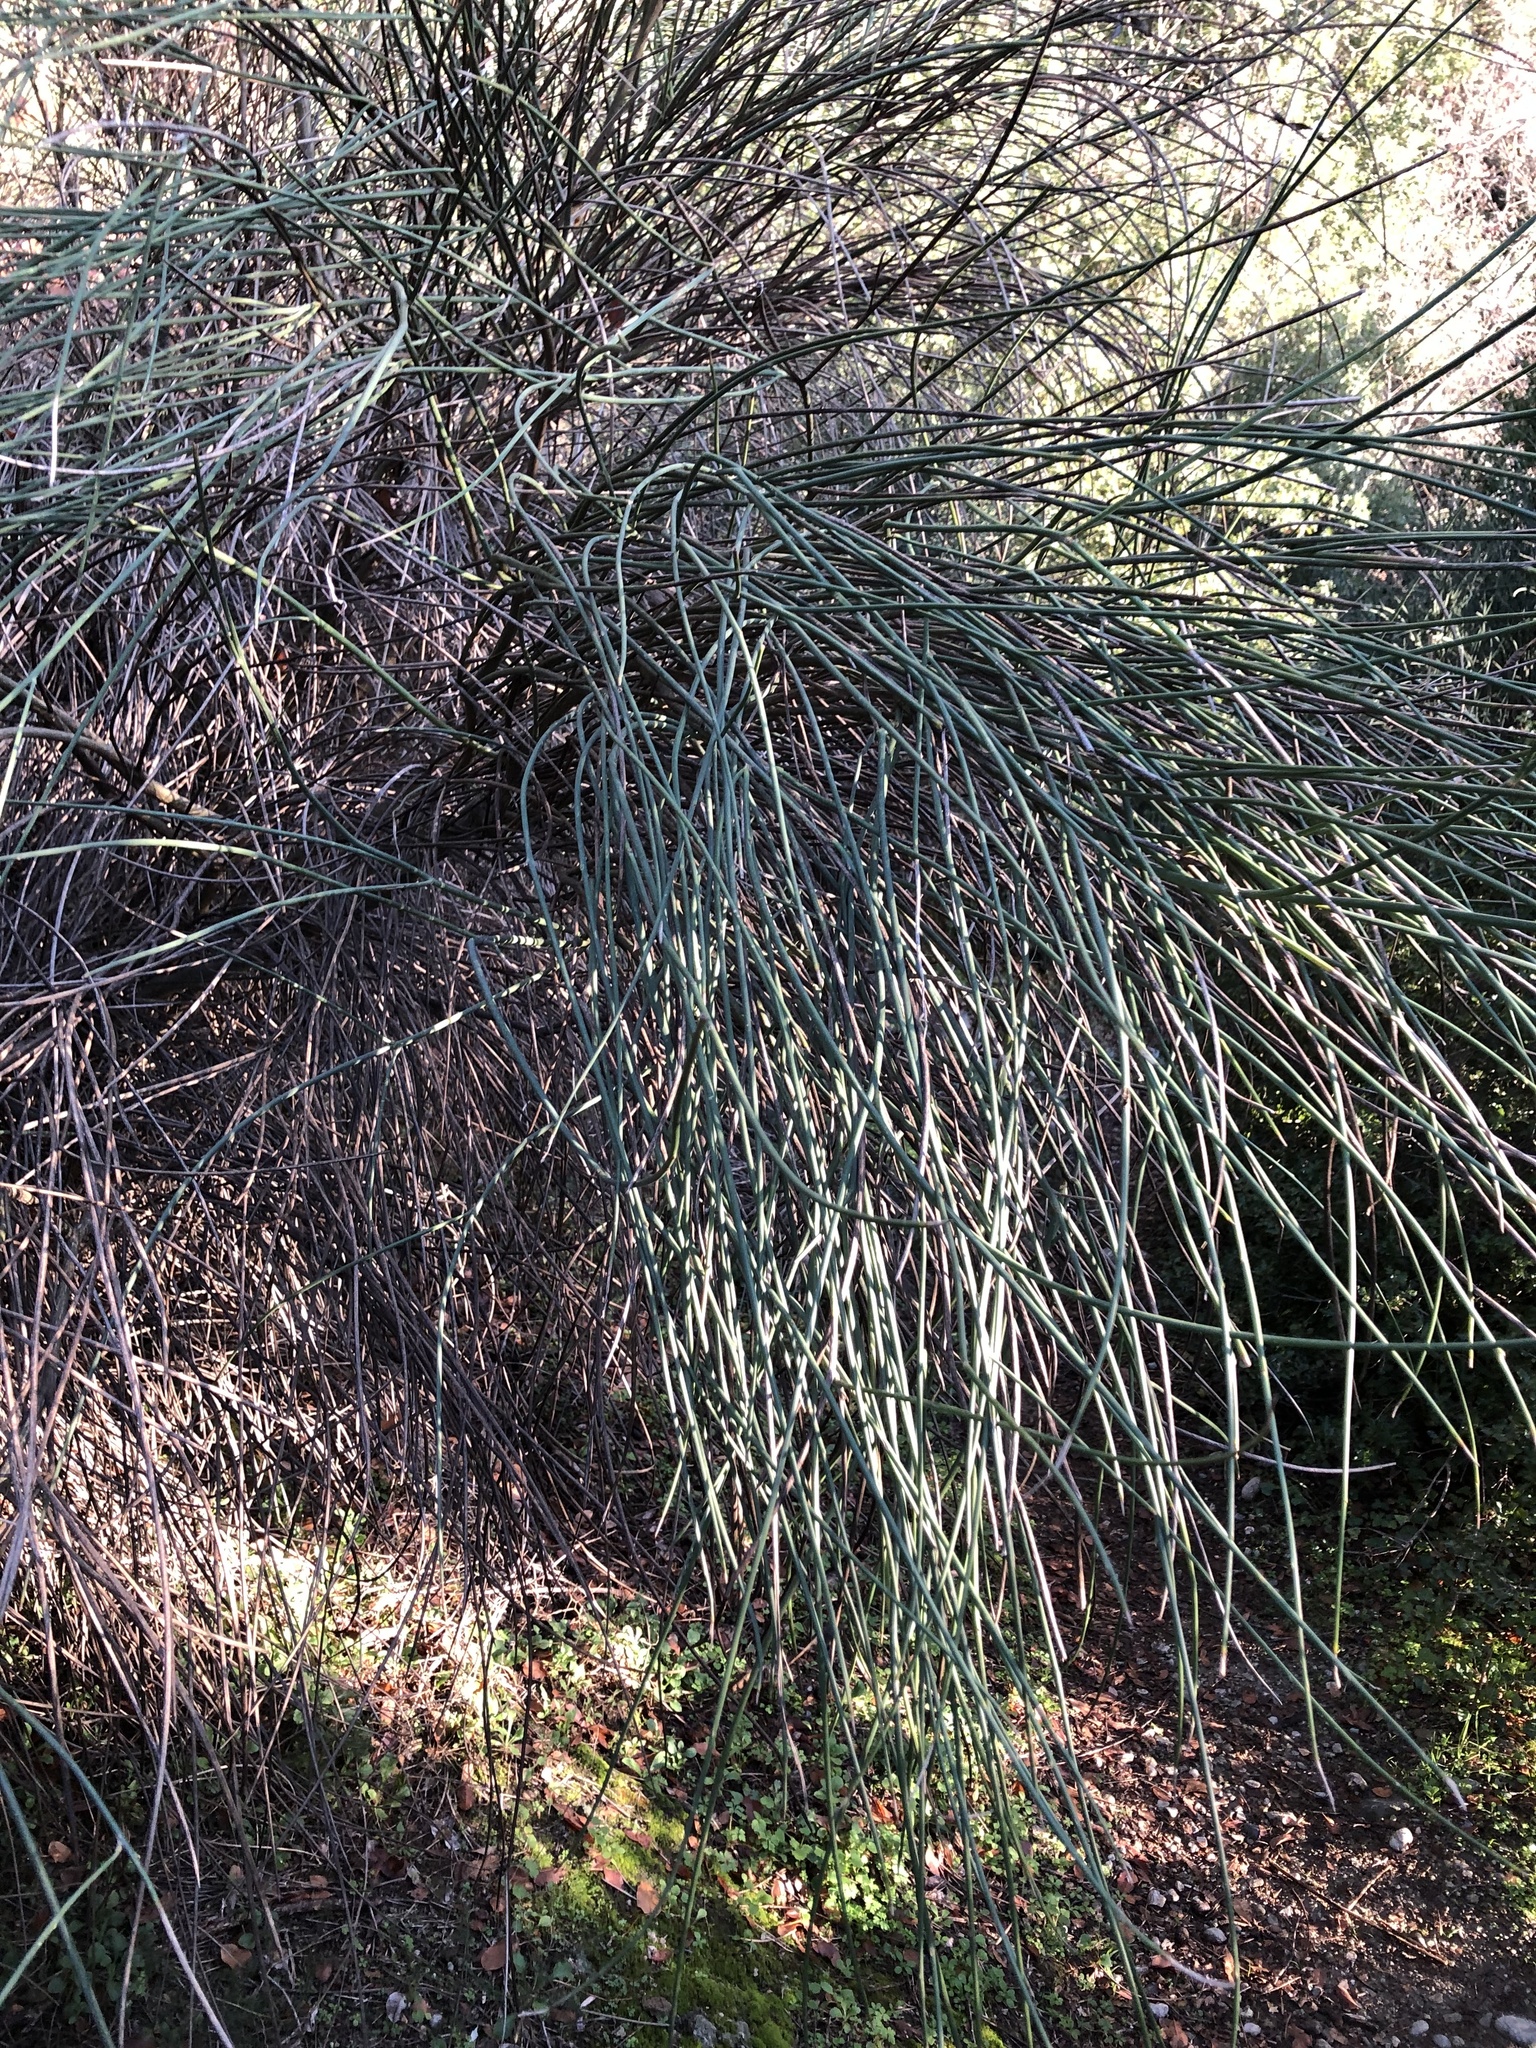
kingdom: Plantae
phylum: Tracheophyta
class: Magnoliopsida
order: Fabales
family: Fabaceae
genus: Spartium
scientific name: Spartium junceum
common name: Spanish broom
